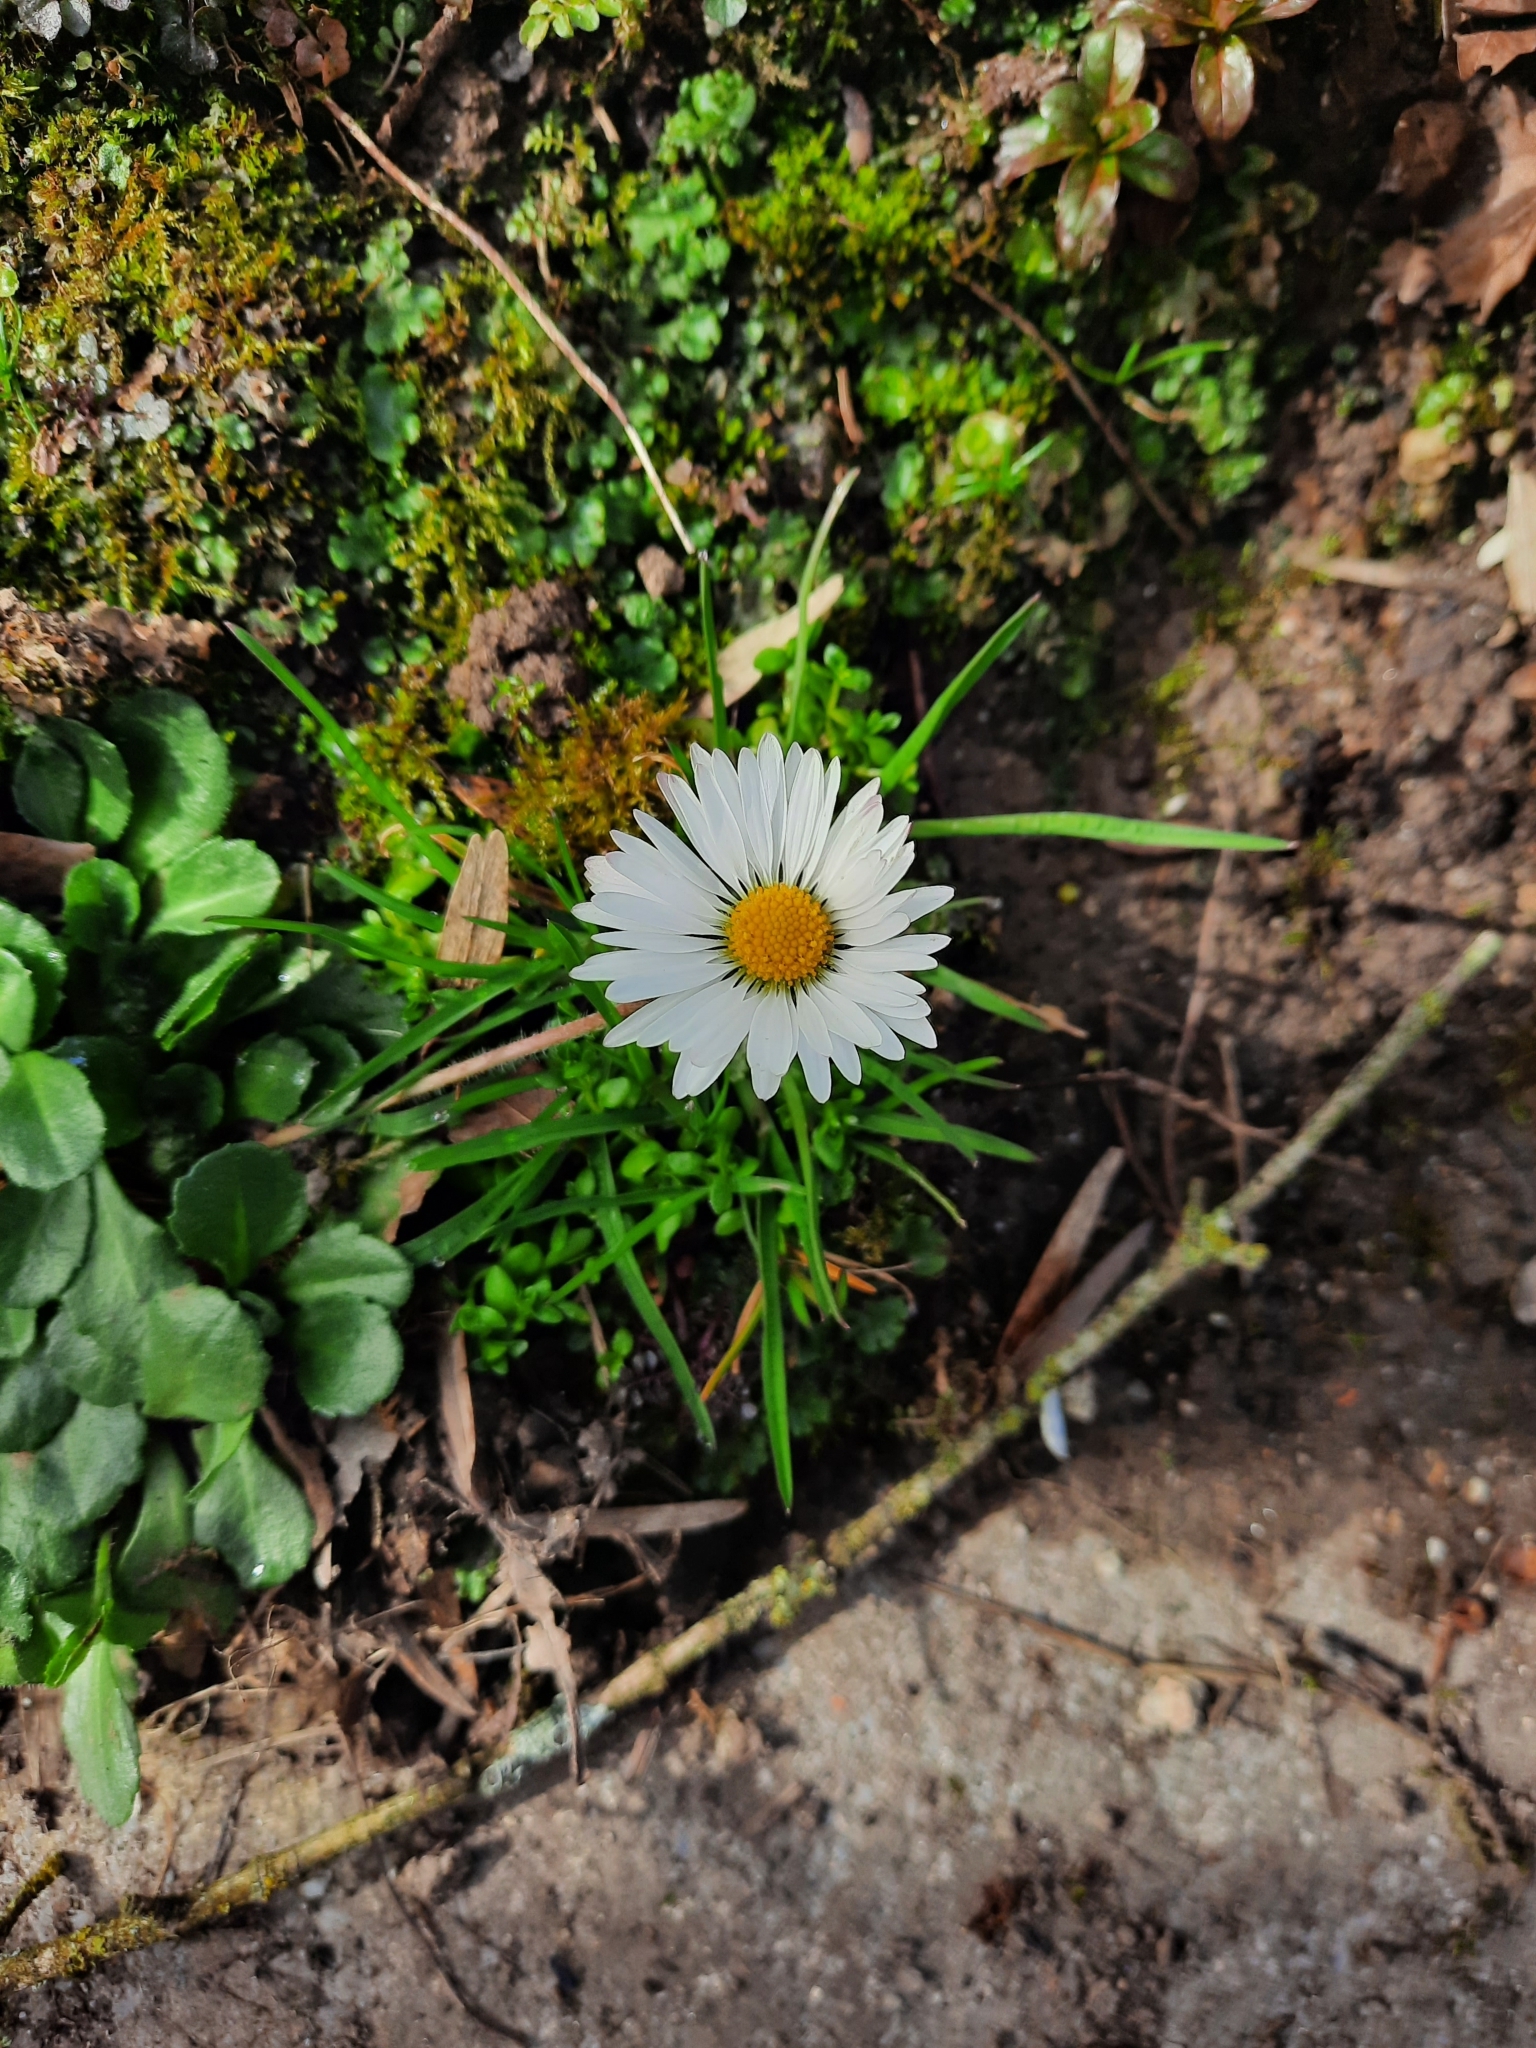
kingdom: Plantae
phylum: Tracheophyta
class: Magnoliopsida
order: Asterales
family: Asteraceae
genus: Bellis
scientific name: Bellis perennis
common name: Lawndaisy
